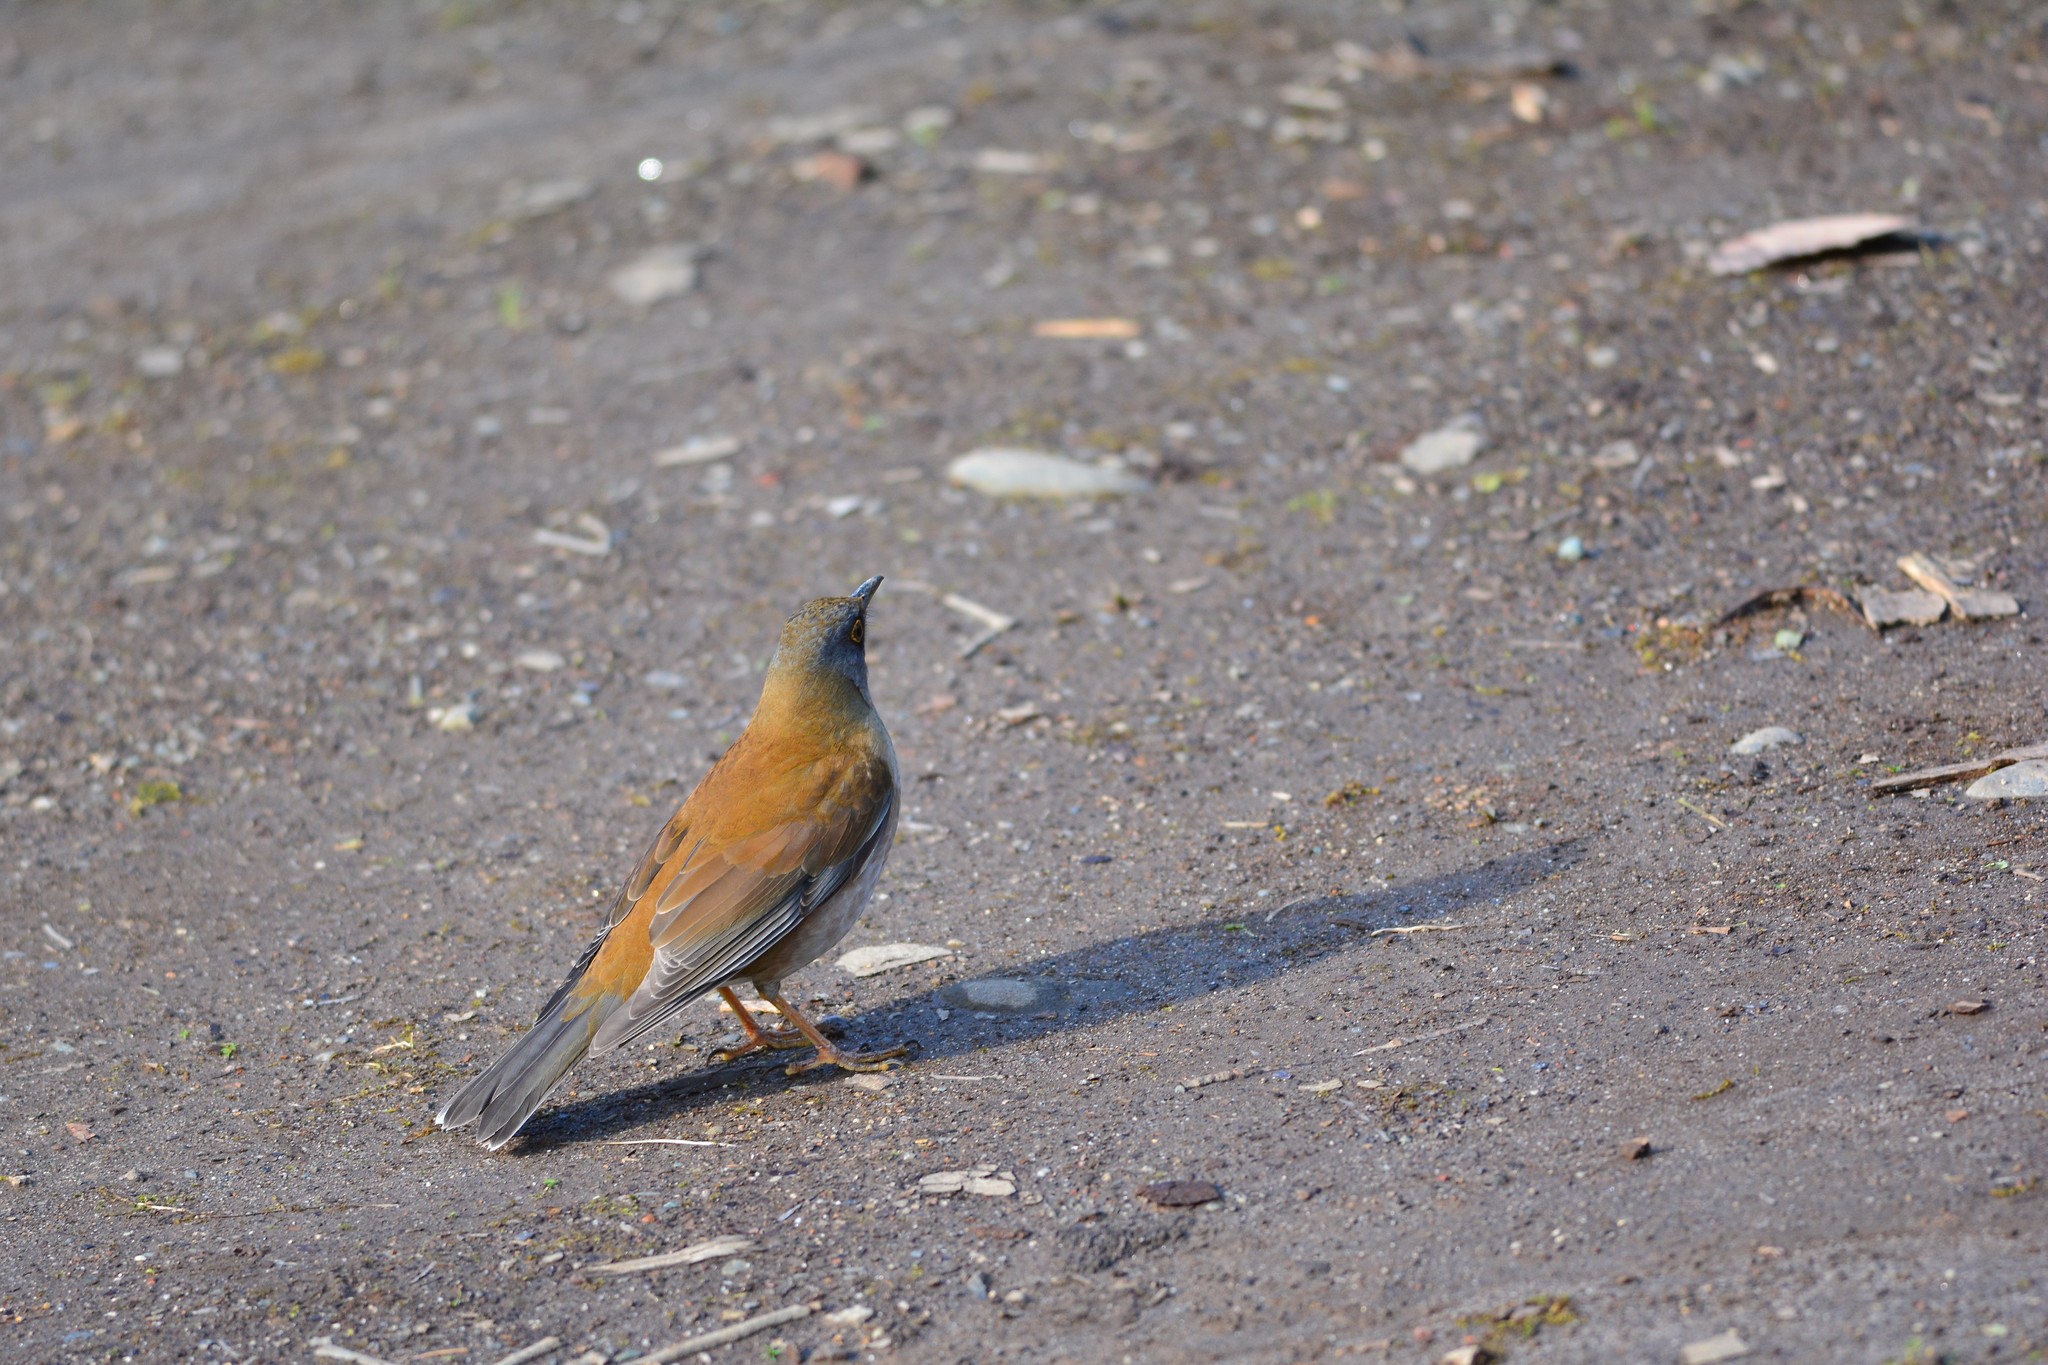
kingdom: Animalia
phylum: Chordata
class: Aves
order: Passeriformes
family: Turdidae
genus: Turdus
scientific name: Turdus pallidus
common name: Pale thrush
